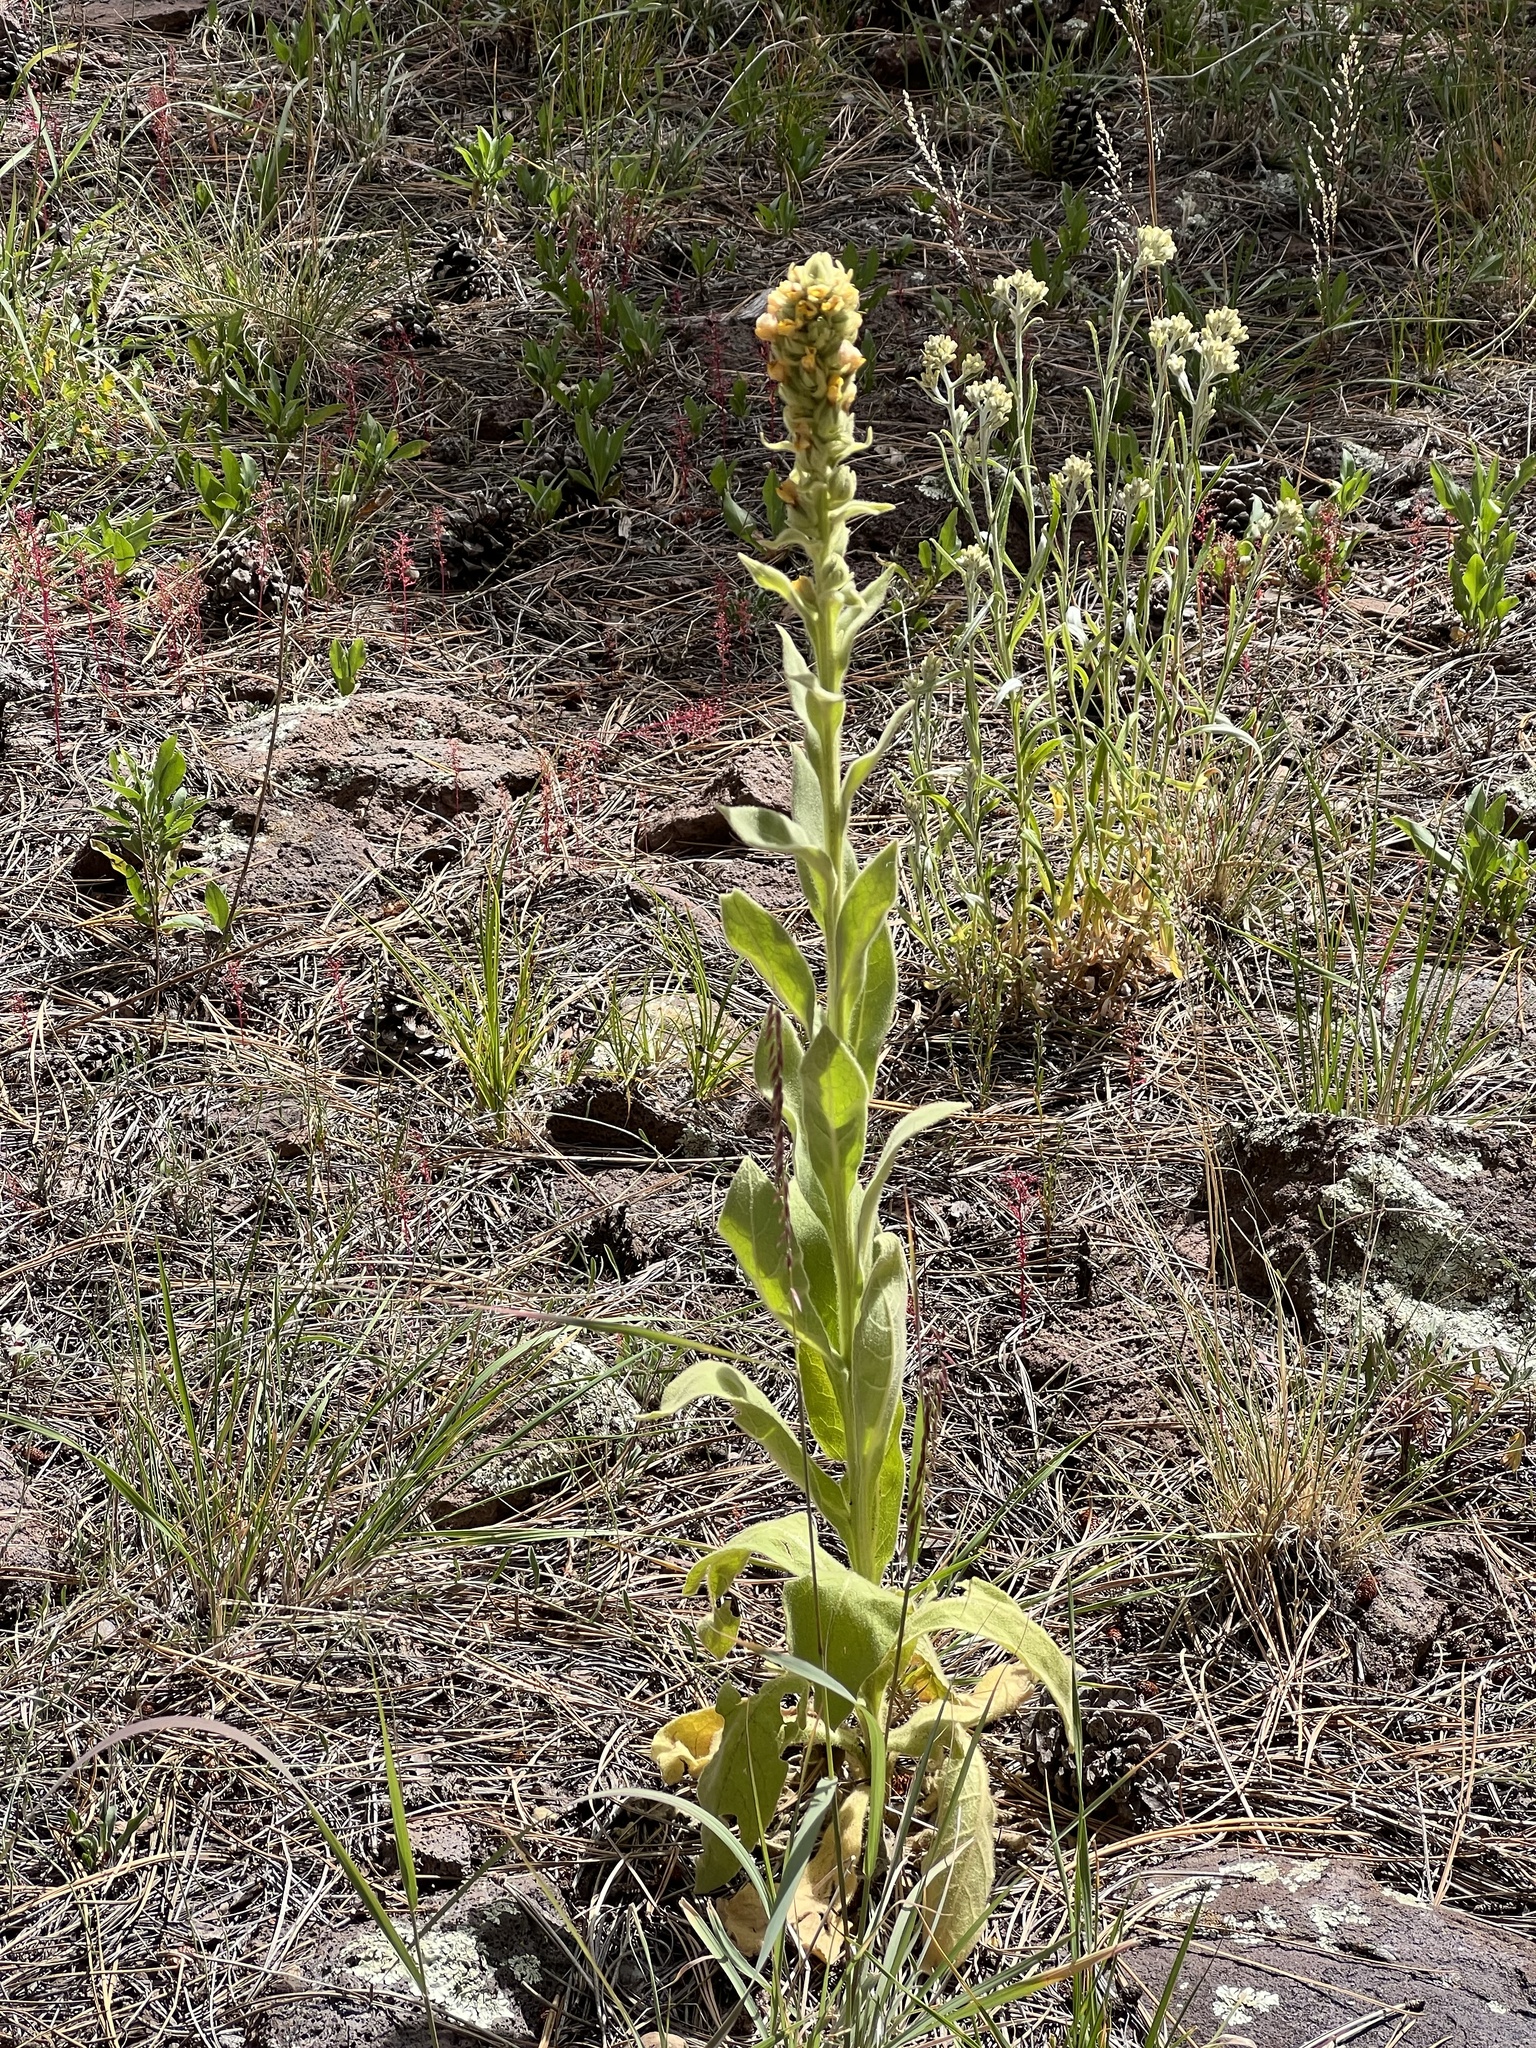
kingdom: Plantae
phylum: Tracheophyta
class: Magnoliopsida
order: Lamiales
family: Scrophulariaceae
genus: Verbascum
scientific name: Verbascum thapsus
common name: Common mullein
